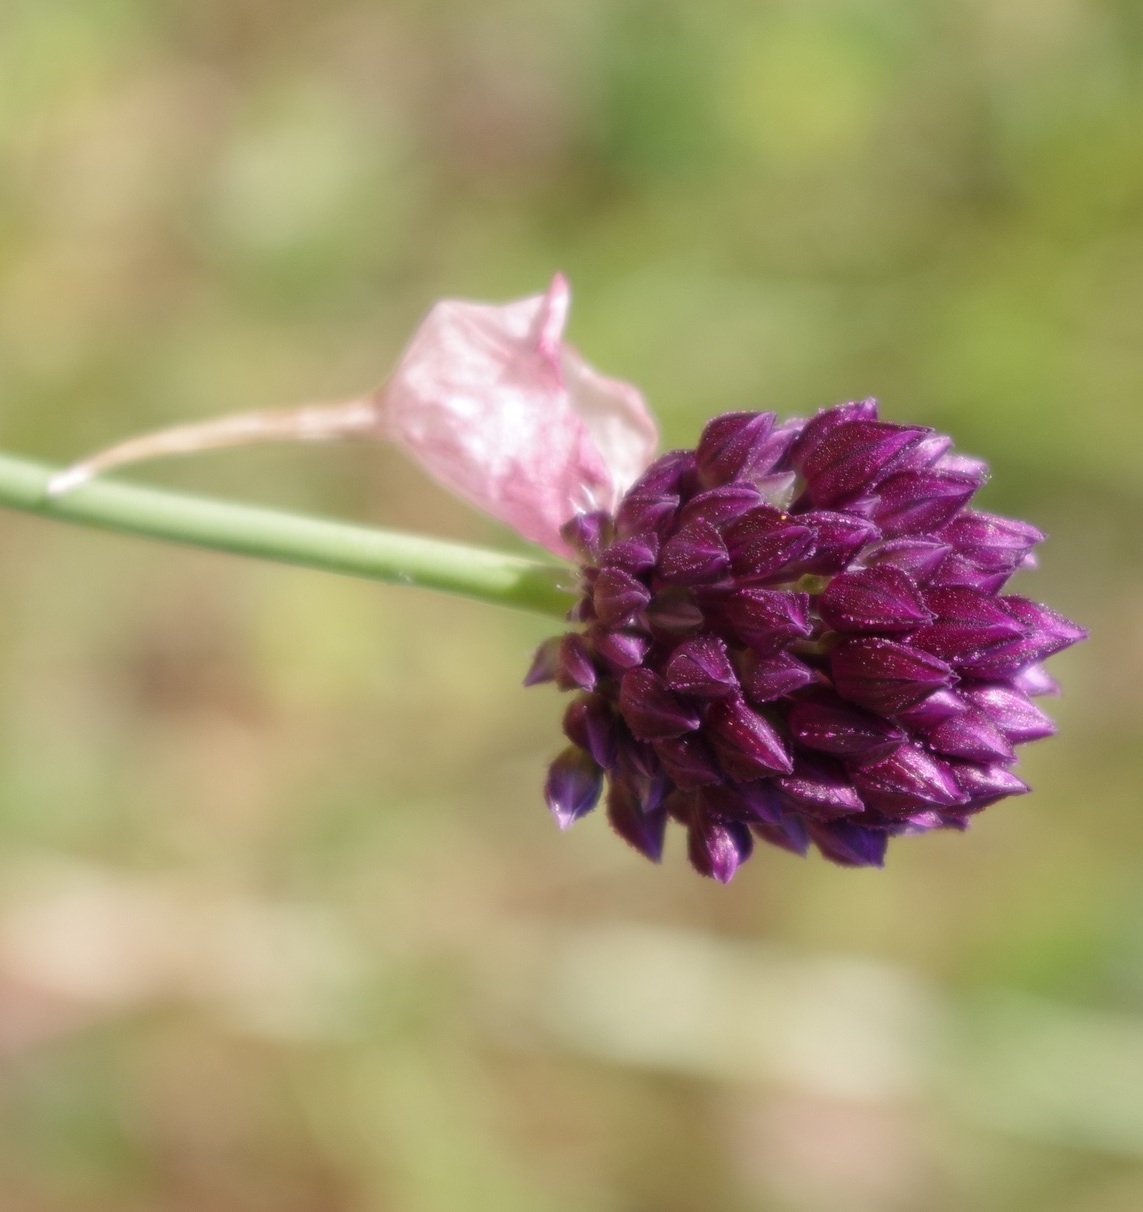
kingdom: Plantae
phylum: Tracheophyta
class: Liliopsida
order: Asparagales
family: Amaryllidaceae
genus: Allium
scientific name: Allium rotundum
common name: Sand leek
